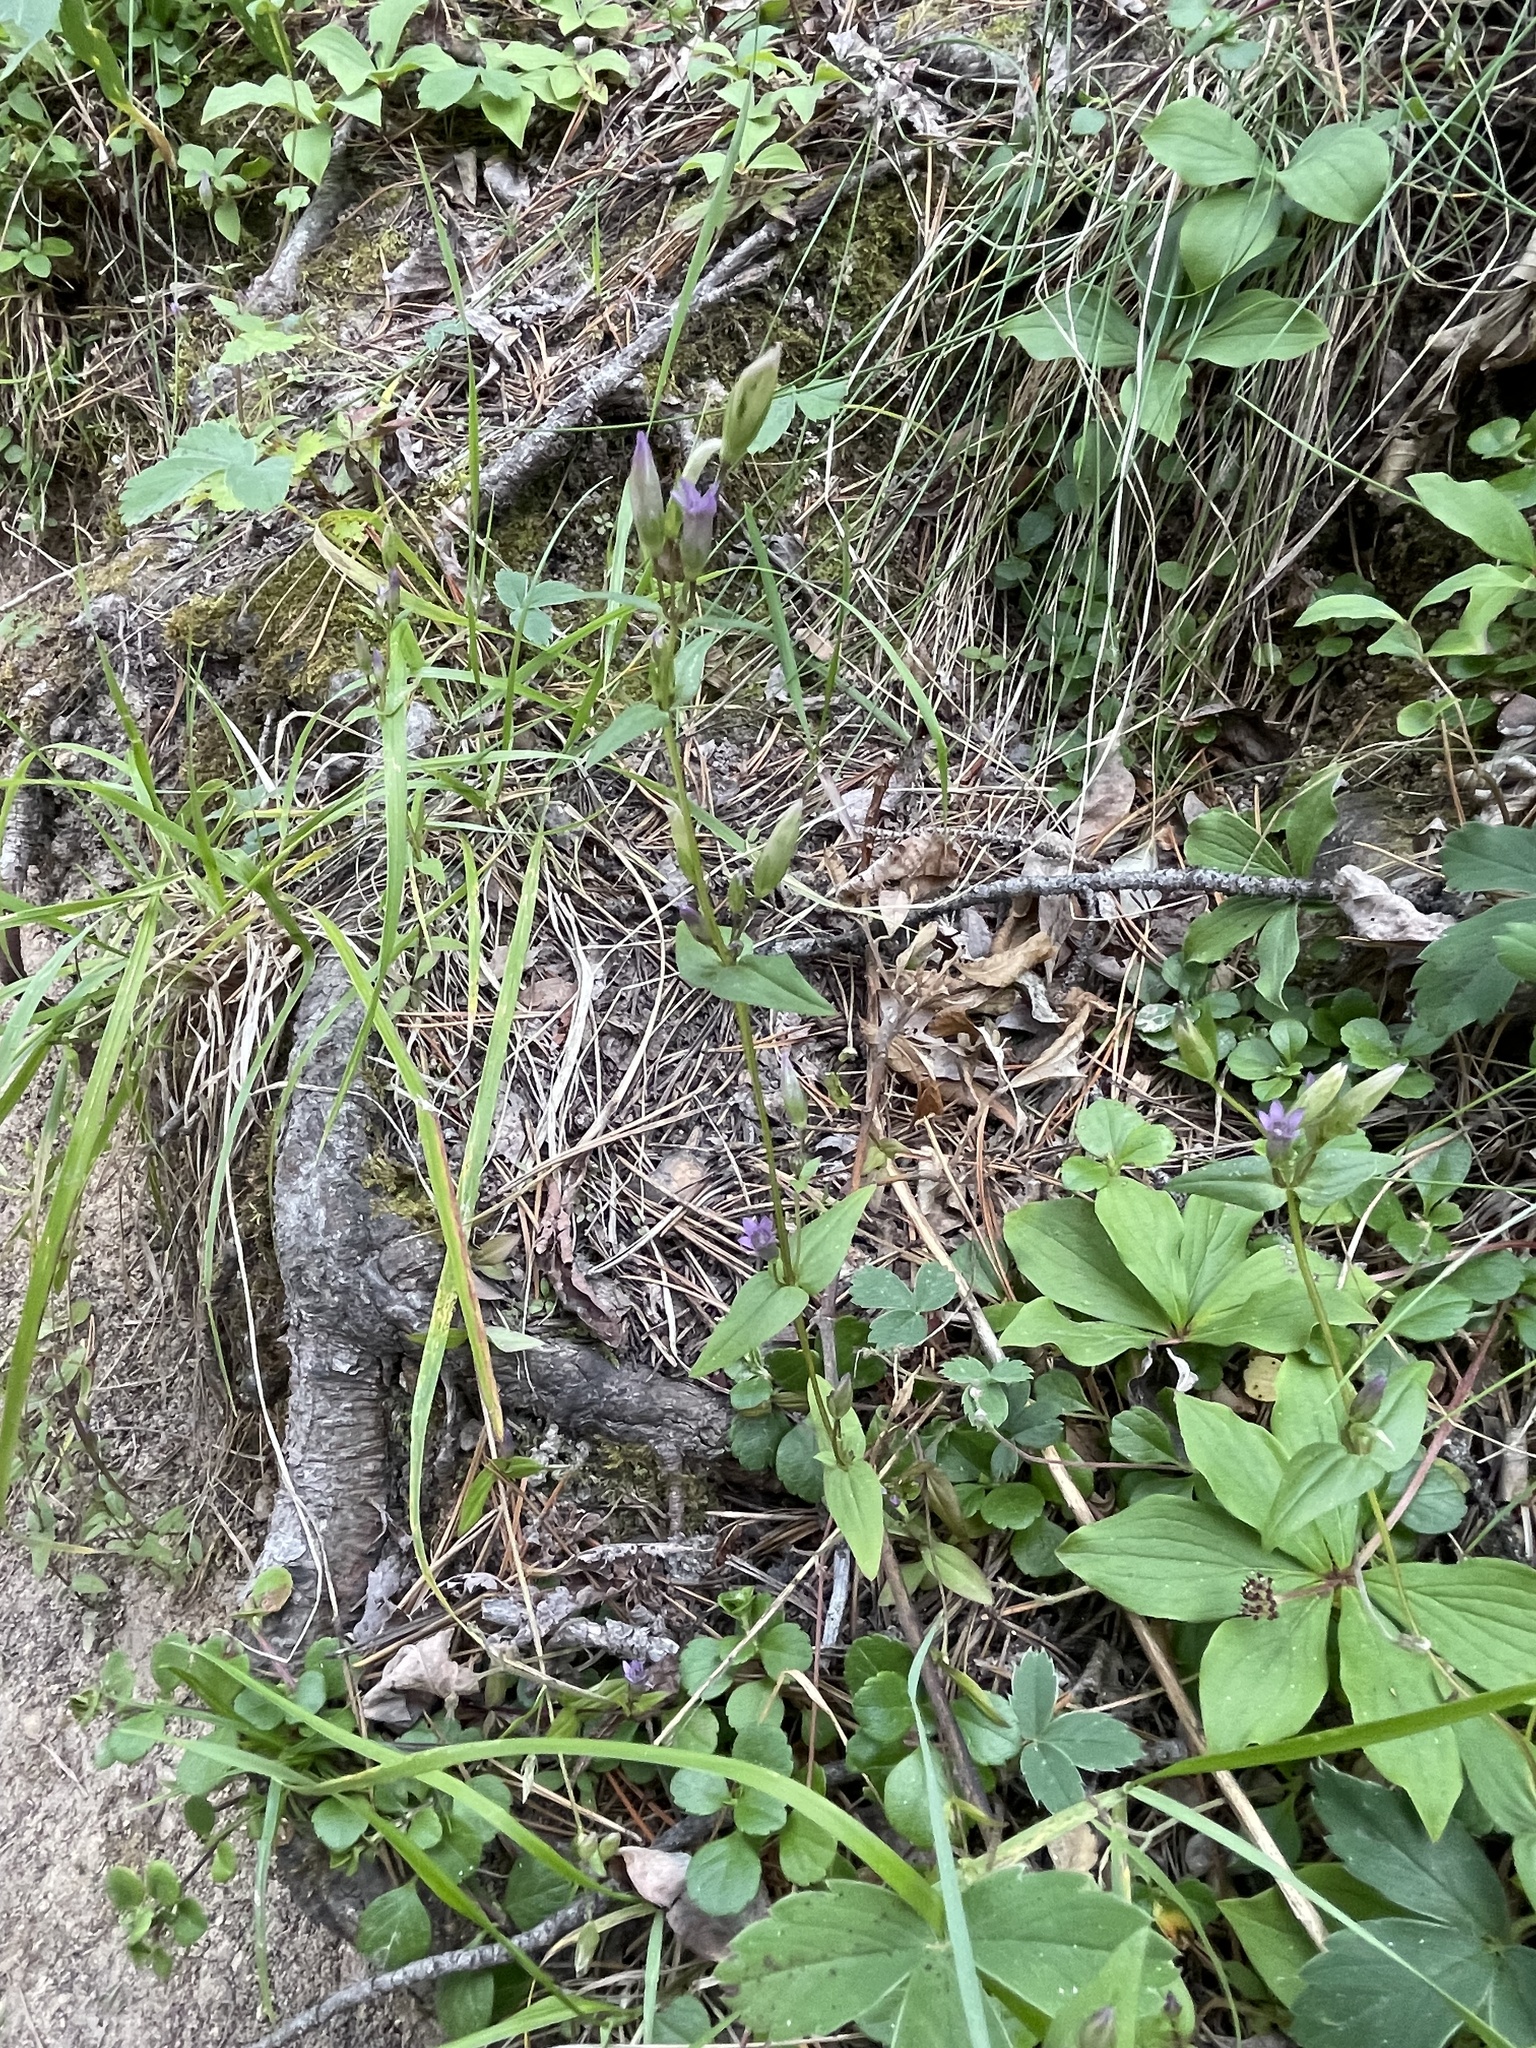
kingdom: Plantae
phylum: Tracheophyta
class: Magnoliopsida
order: Gentianales
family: Gentianaceae
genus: Gentianella
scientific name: Gentianella amarella
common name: Autumn gentian
